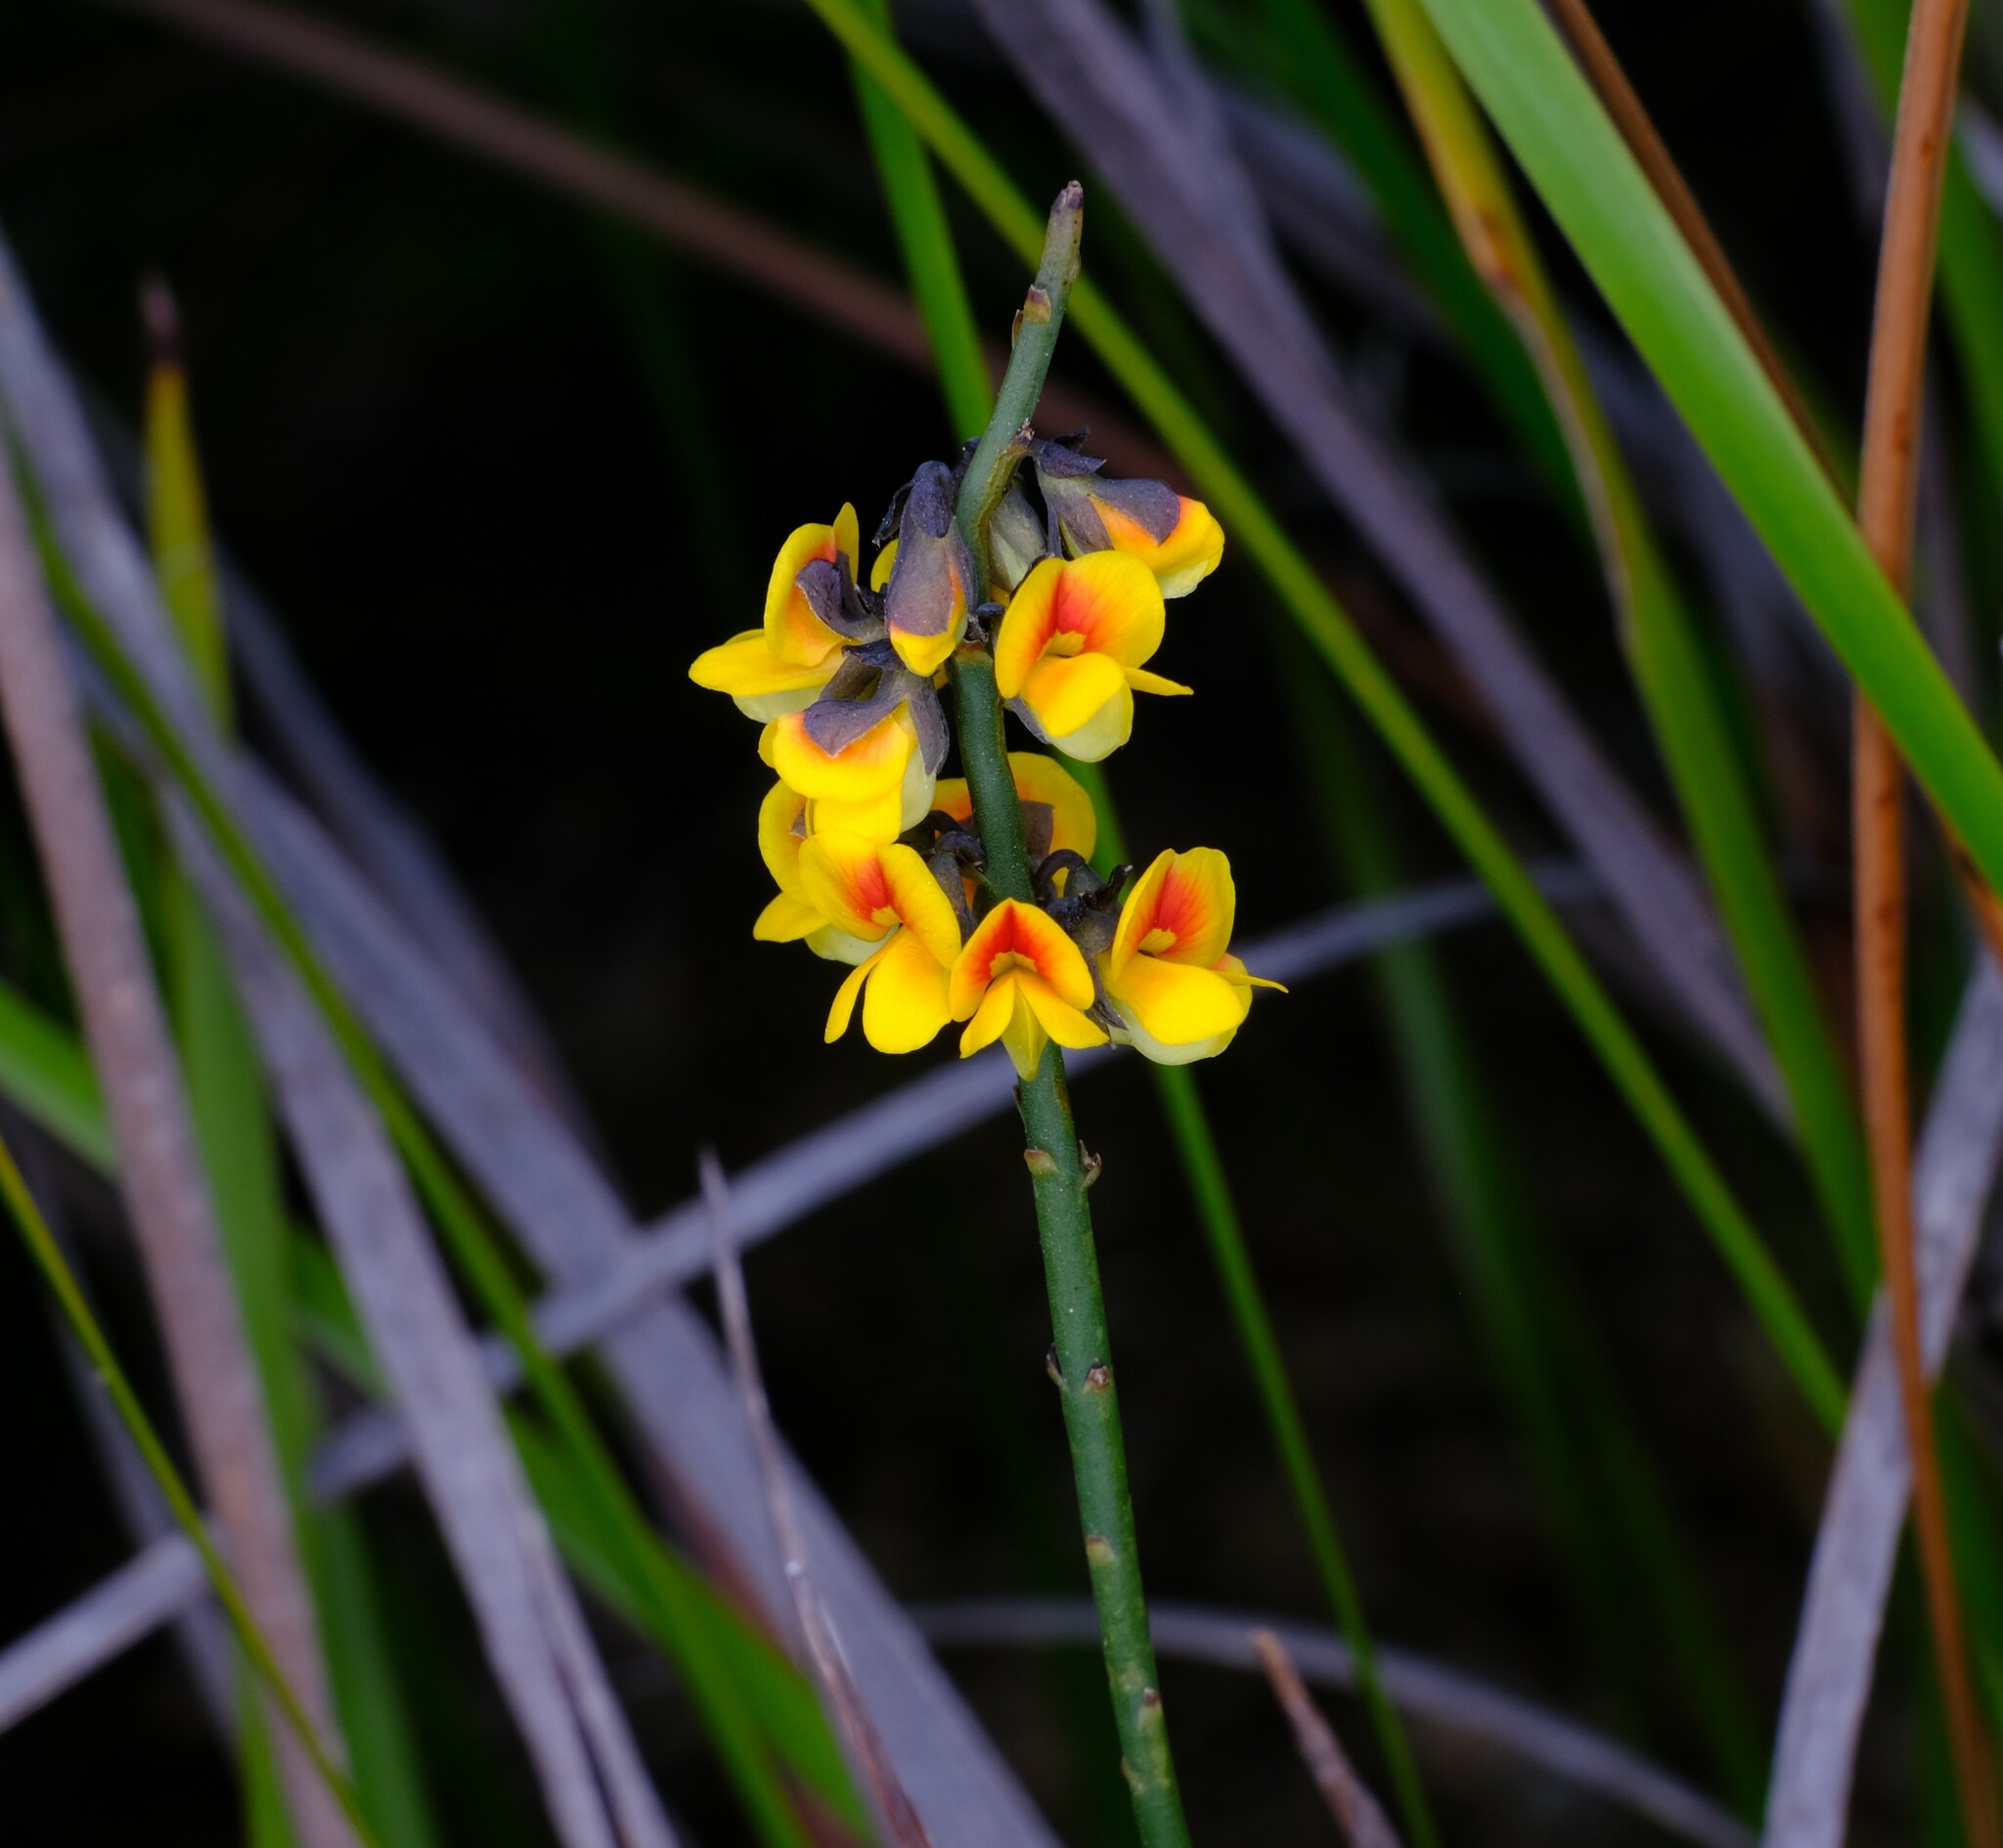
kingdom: Plantae
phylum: Tracheophyta
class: Magnoliopsida
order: Fabales
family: Fabaceae
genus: Sphaerolobium
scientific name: Sphaerolobium minus
